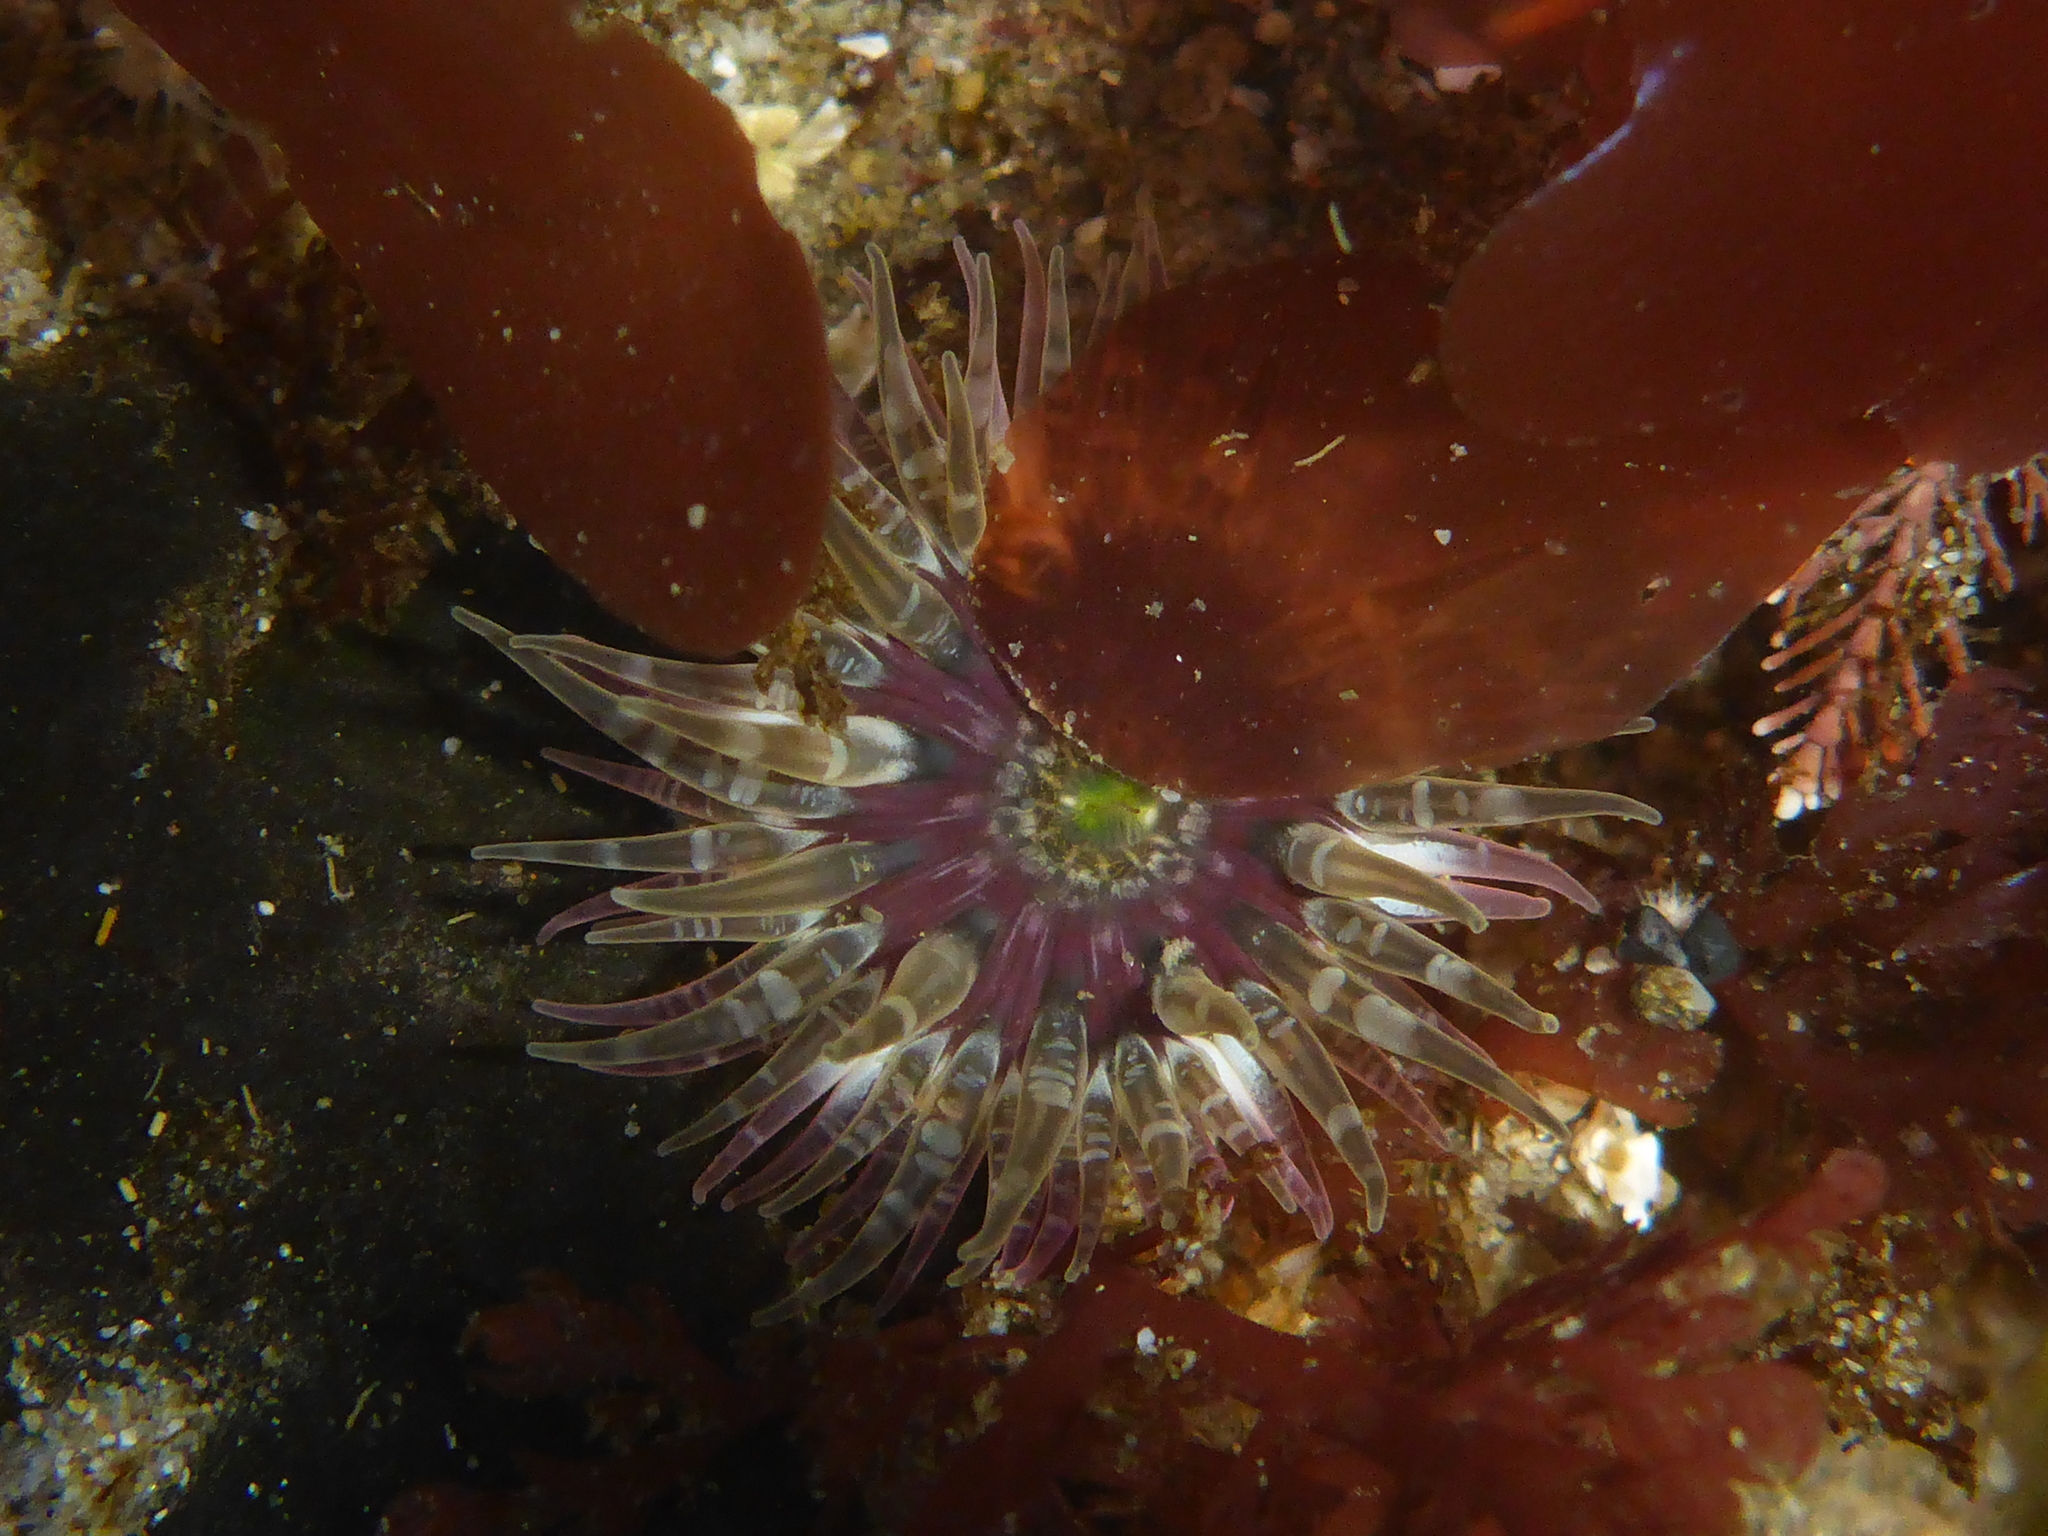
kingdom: Animalia
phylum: Cnidaria
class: Anthozoa
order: Actiniaria
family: Actiniidae
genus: Anthopleura
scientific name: Anthopleura artemisia
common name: Buried sea anemone
